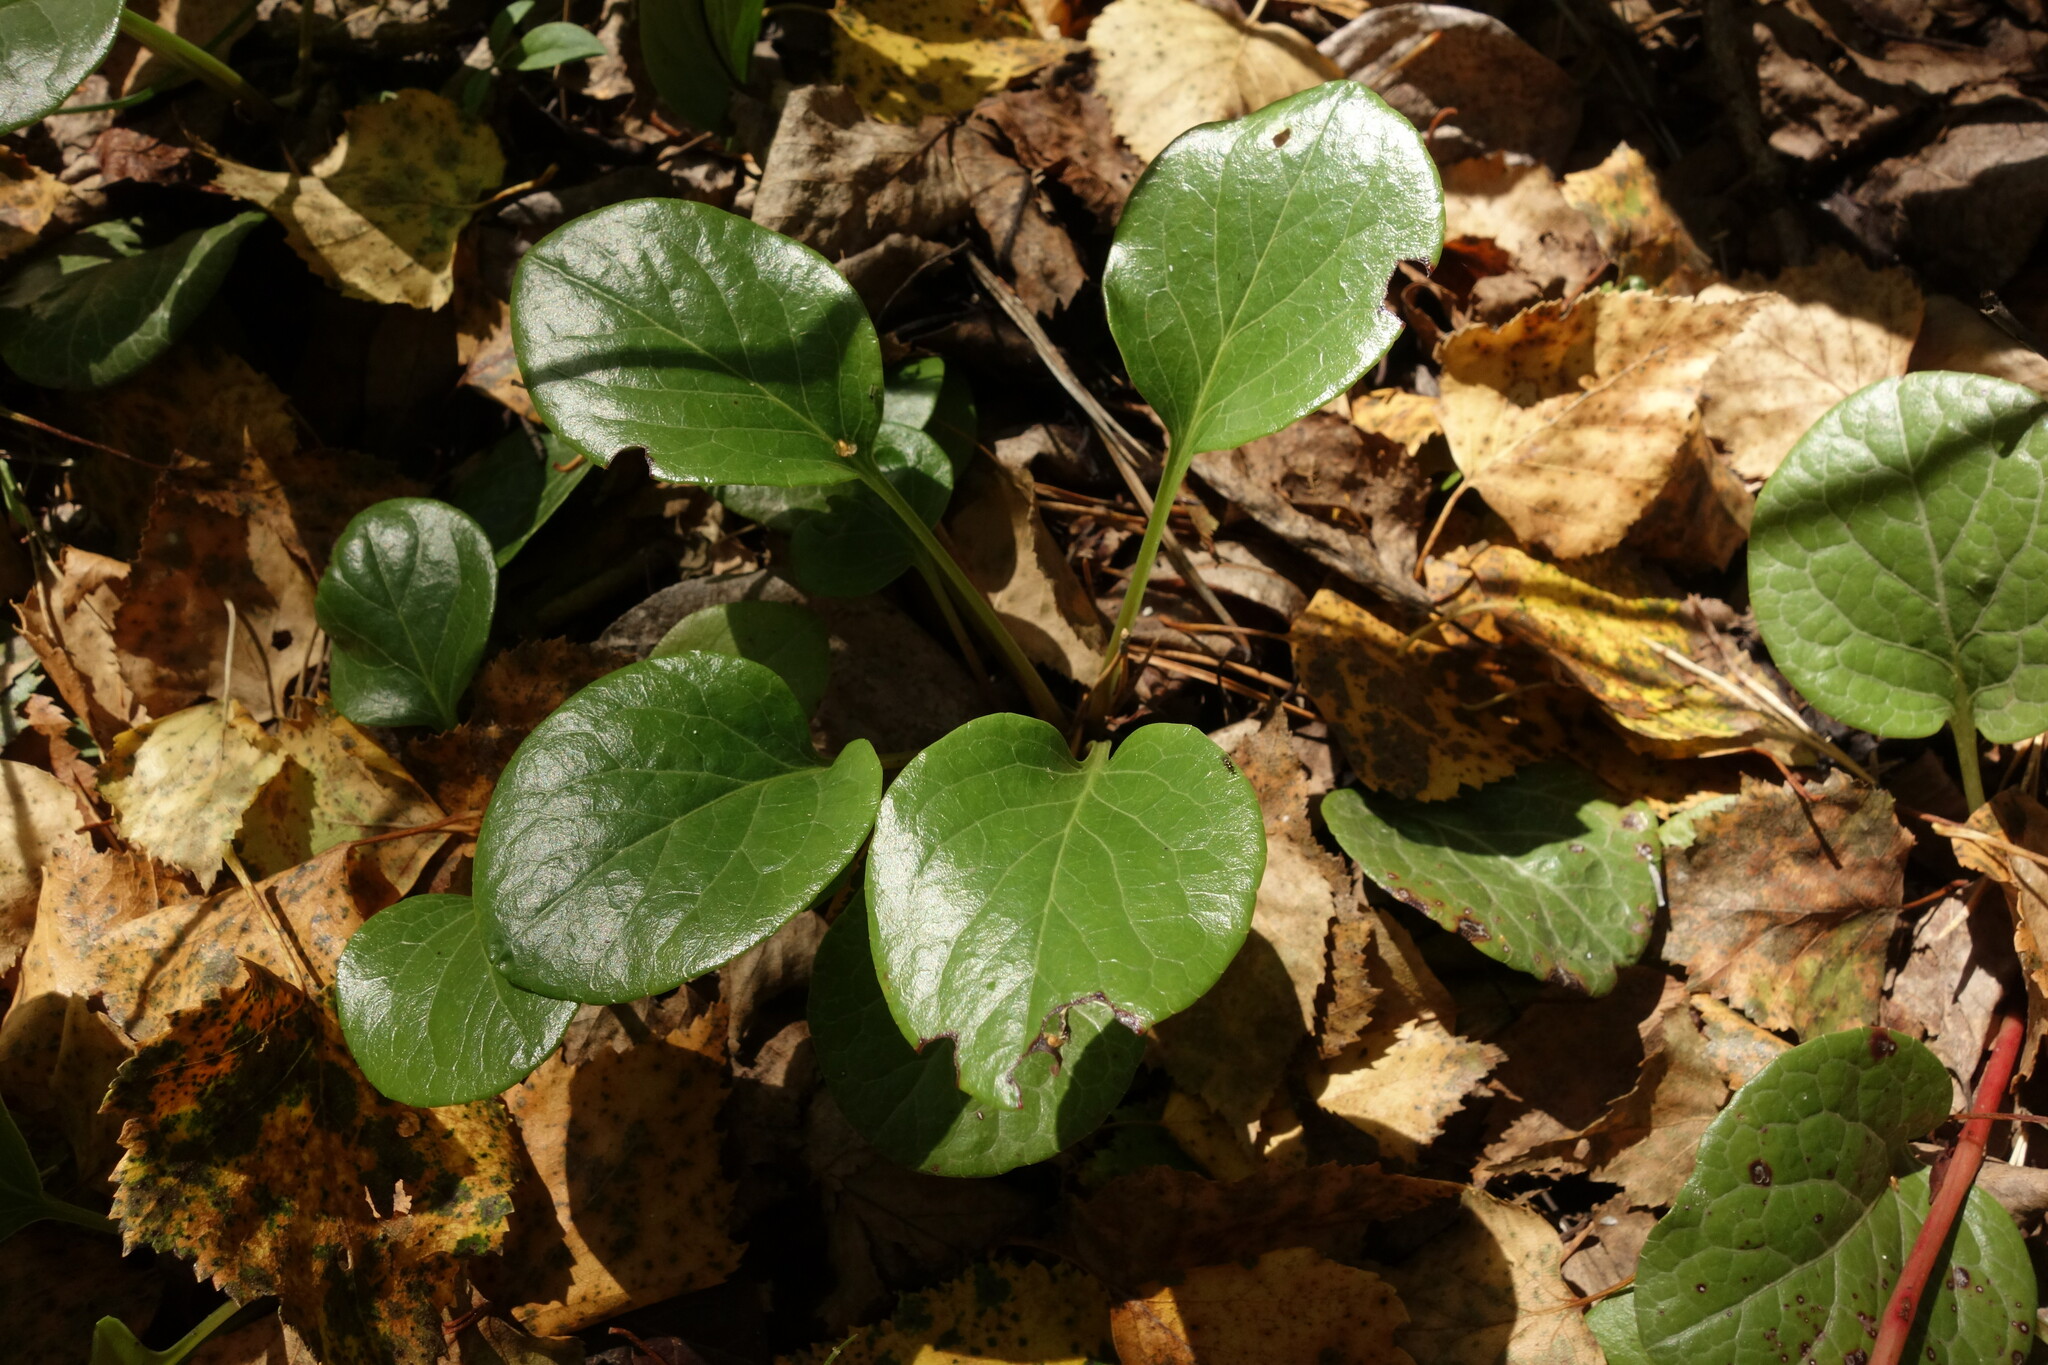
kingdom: Plantae
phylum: Tracheophyta
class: Magnoliopsida
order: Ericales
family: Ericaceae
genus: Pyrola
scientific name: Pyrola asarifolia
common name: Bog wintergreen
